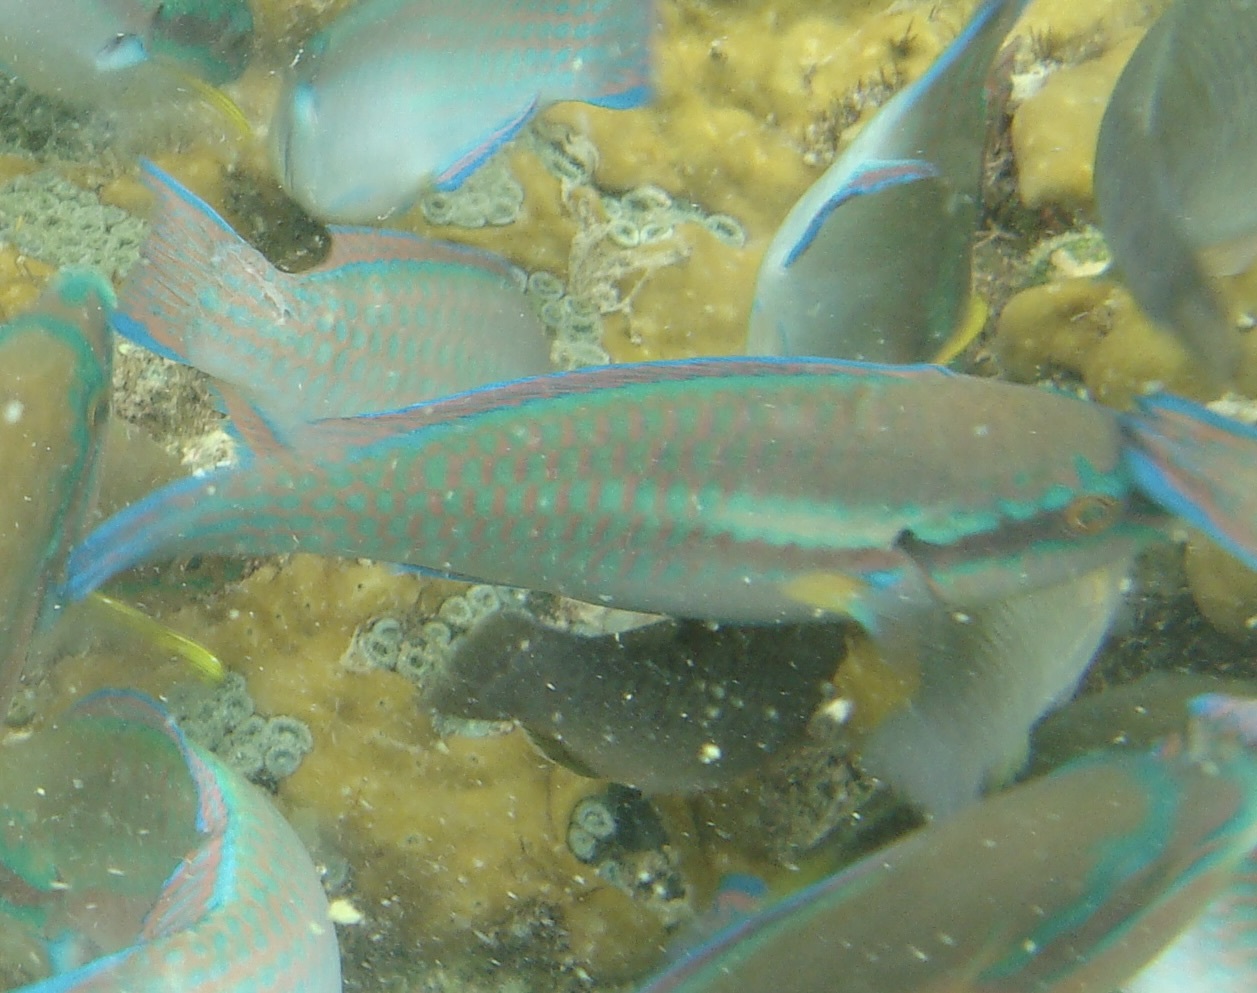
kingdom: Animalia
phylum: Chordata
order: Perciformes
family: Scaridae
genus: Scarus
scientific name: Scarus iseri
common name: Striped parrotfish
